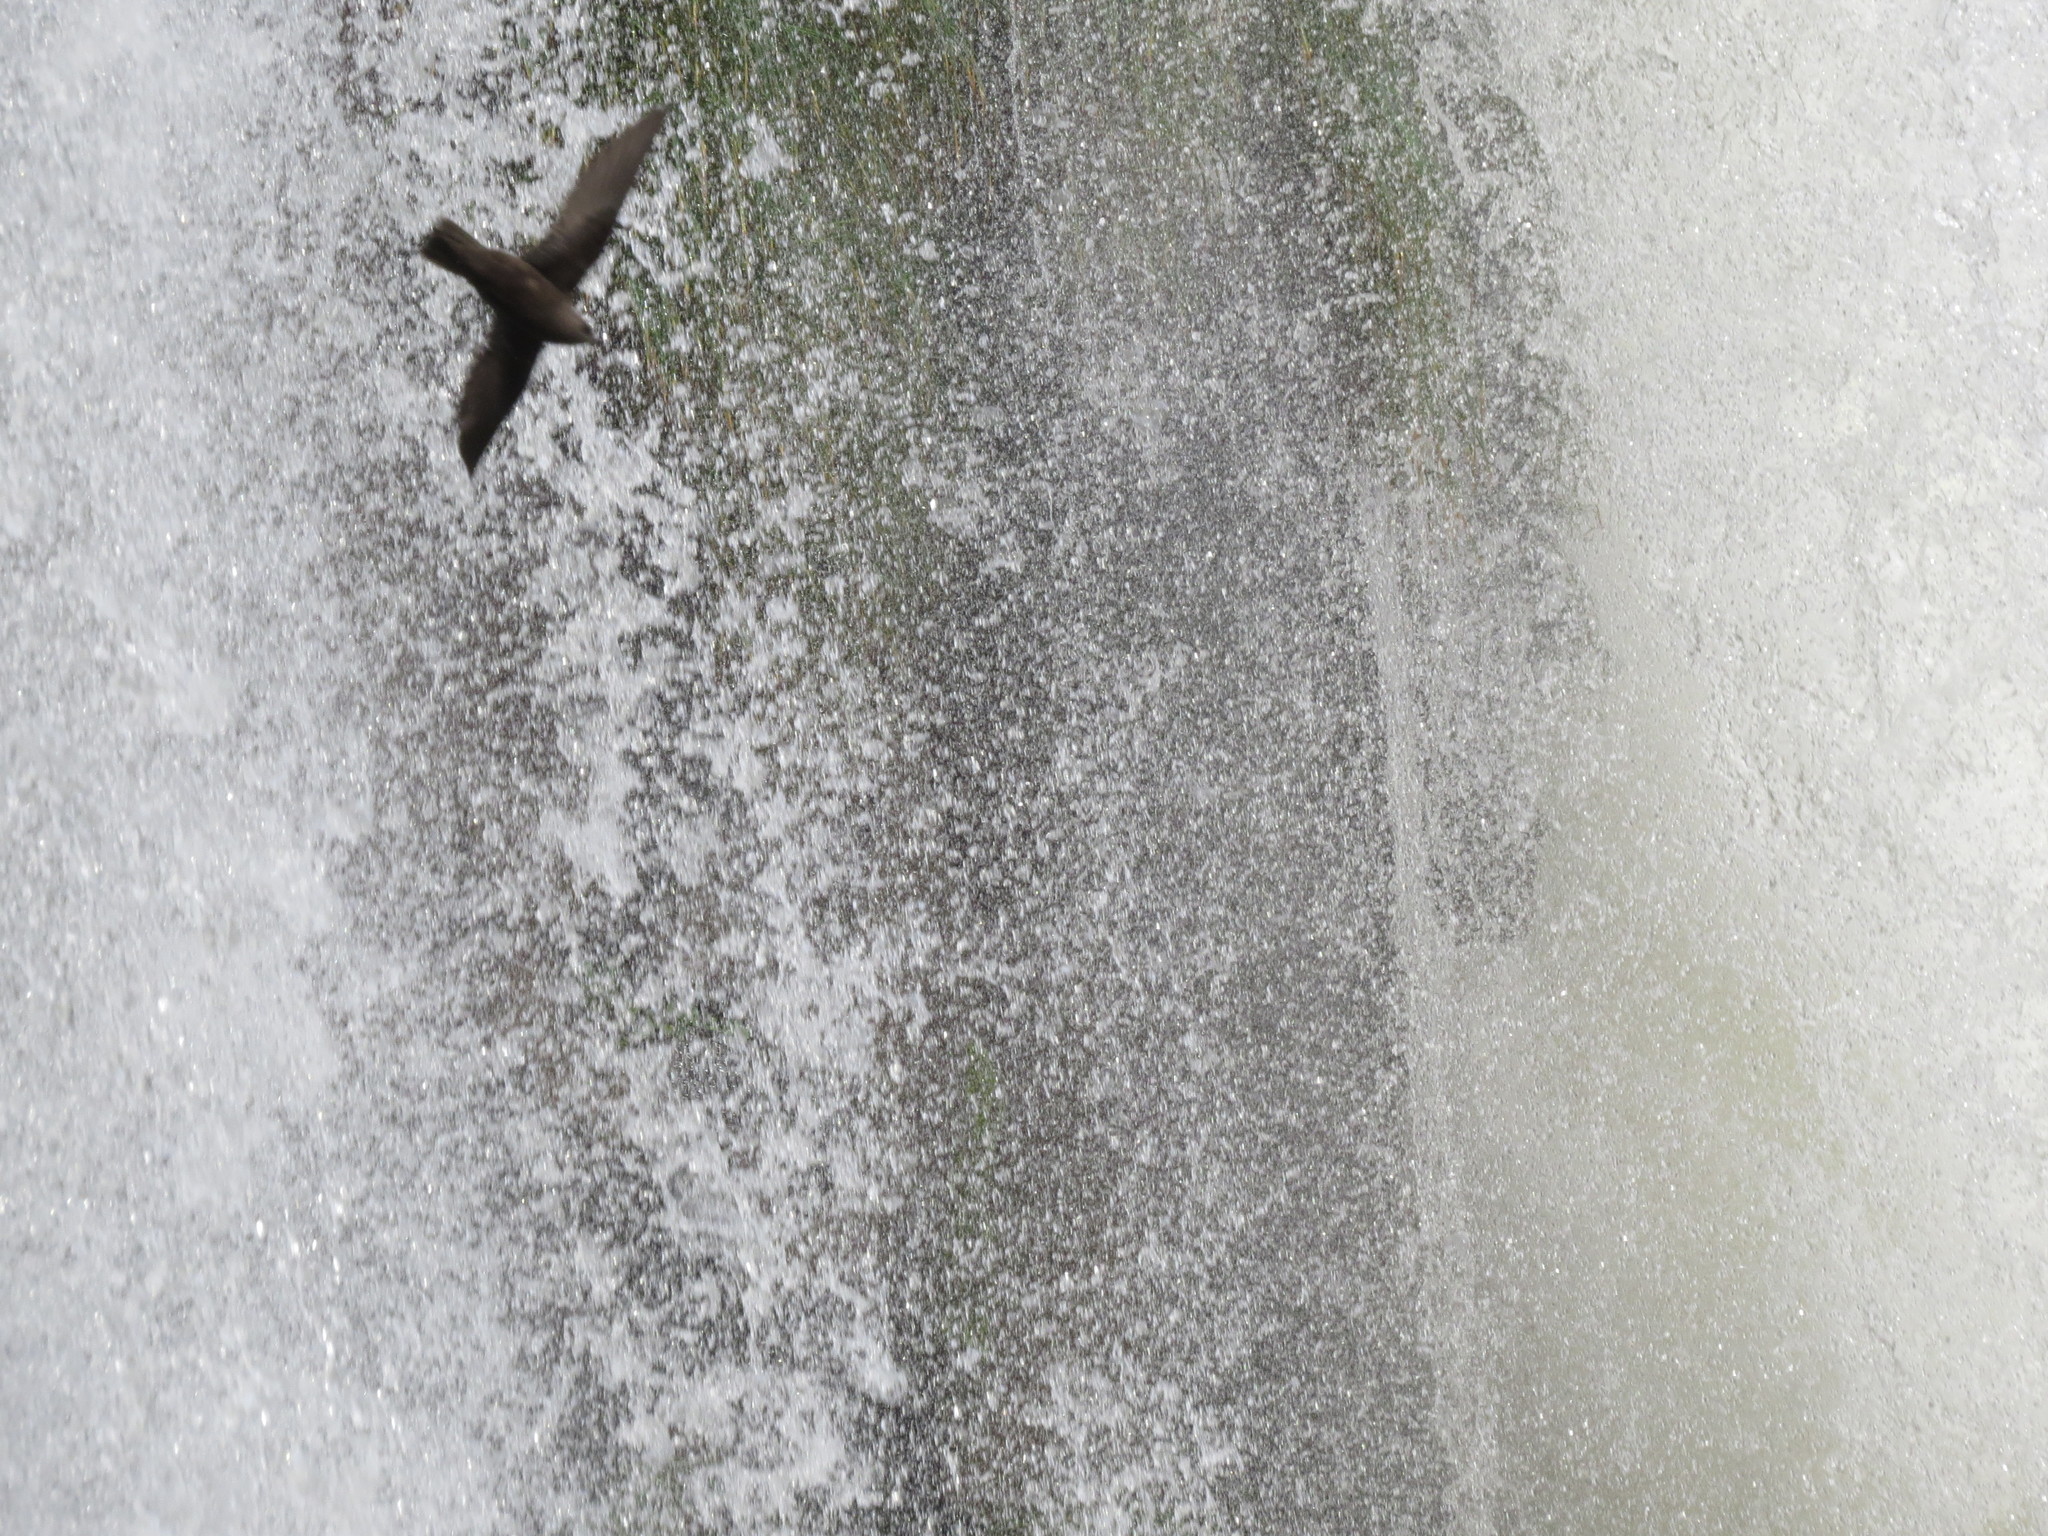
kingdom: Animalia
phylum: Chordata
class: Aves
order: Apodiformes
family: Apodidae
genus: Cypseloides
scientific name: Cypseloides senex
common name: Great dusky swift
